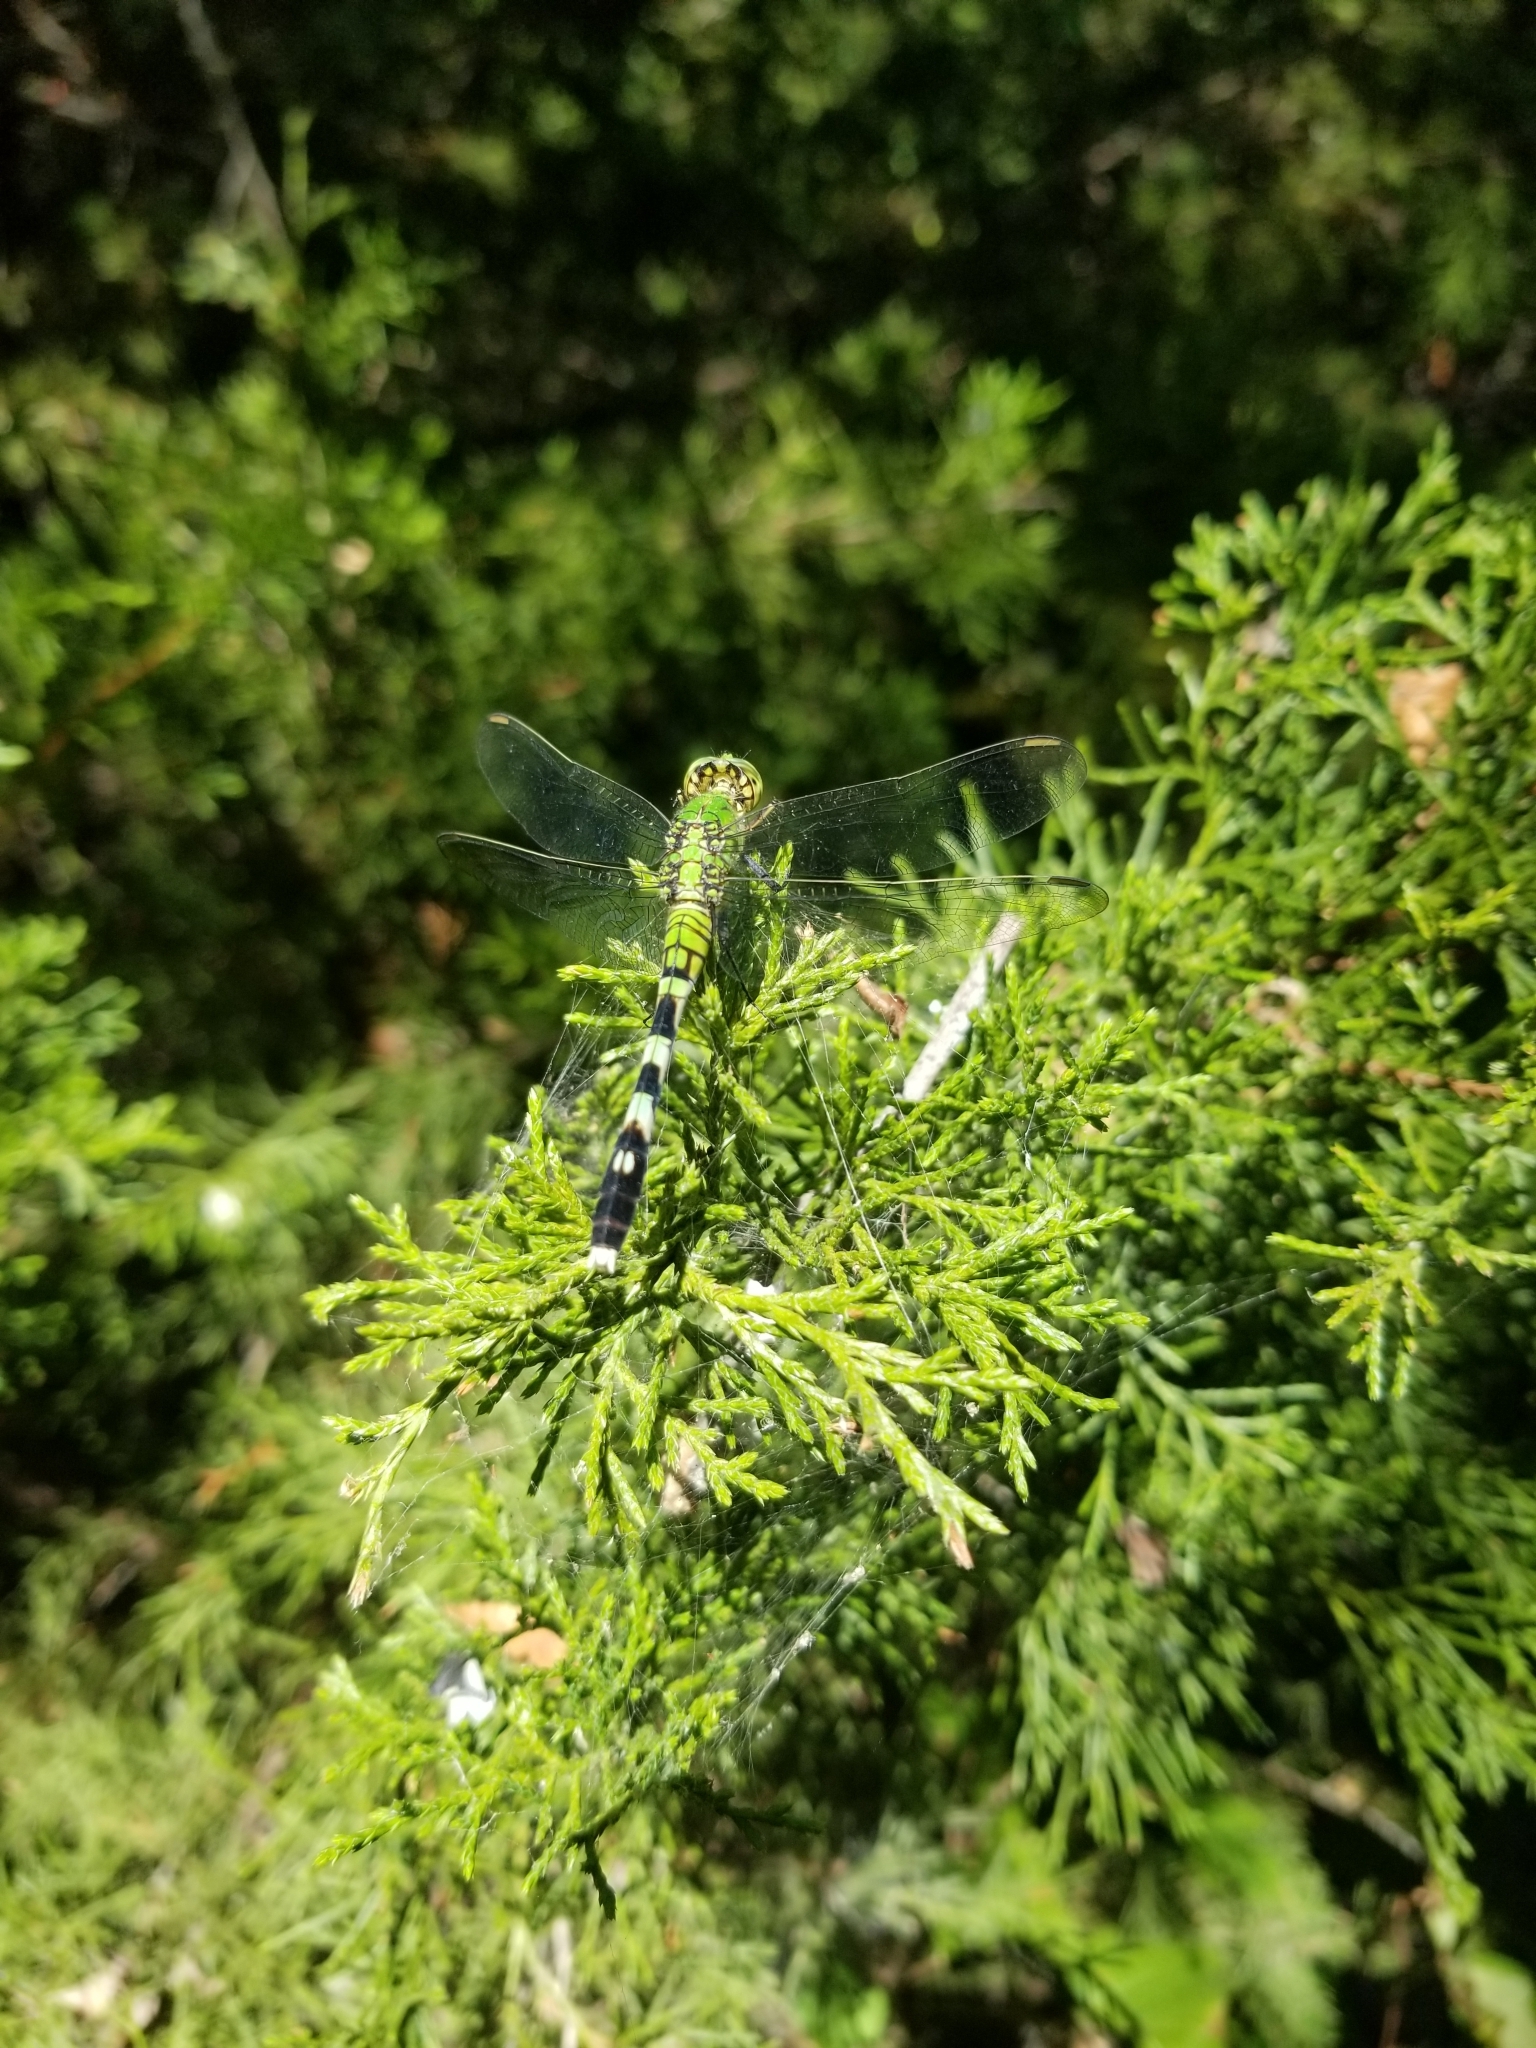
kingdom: Animalia
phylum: Arthropoda
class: Insecta
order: Odonata
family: Libellulidae
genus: Erythemis
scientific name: Erythemis simplicicollis
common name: Eastern pondhawk
